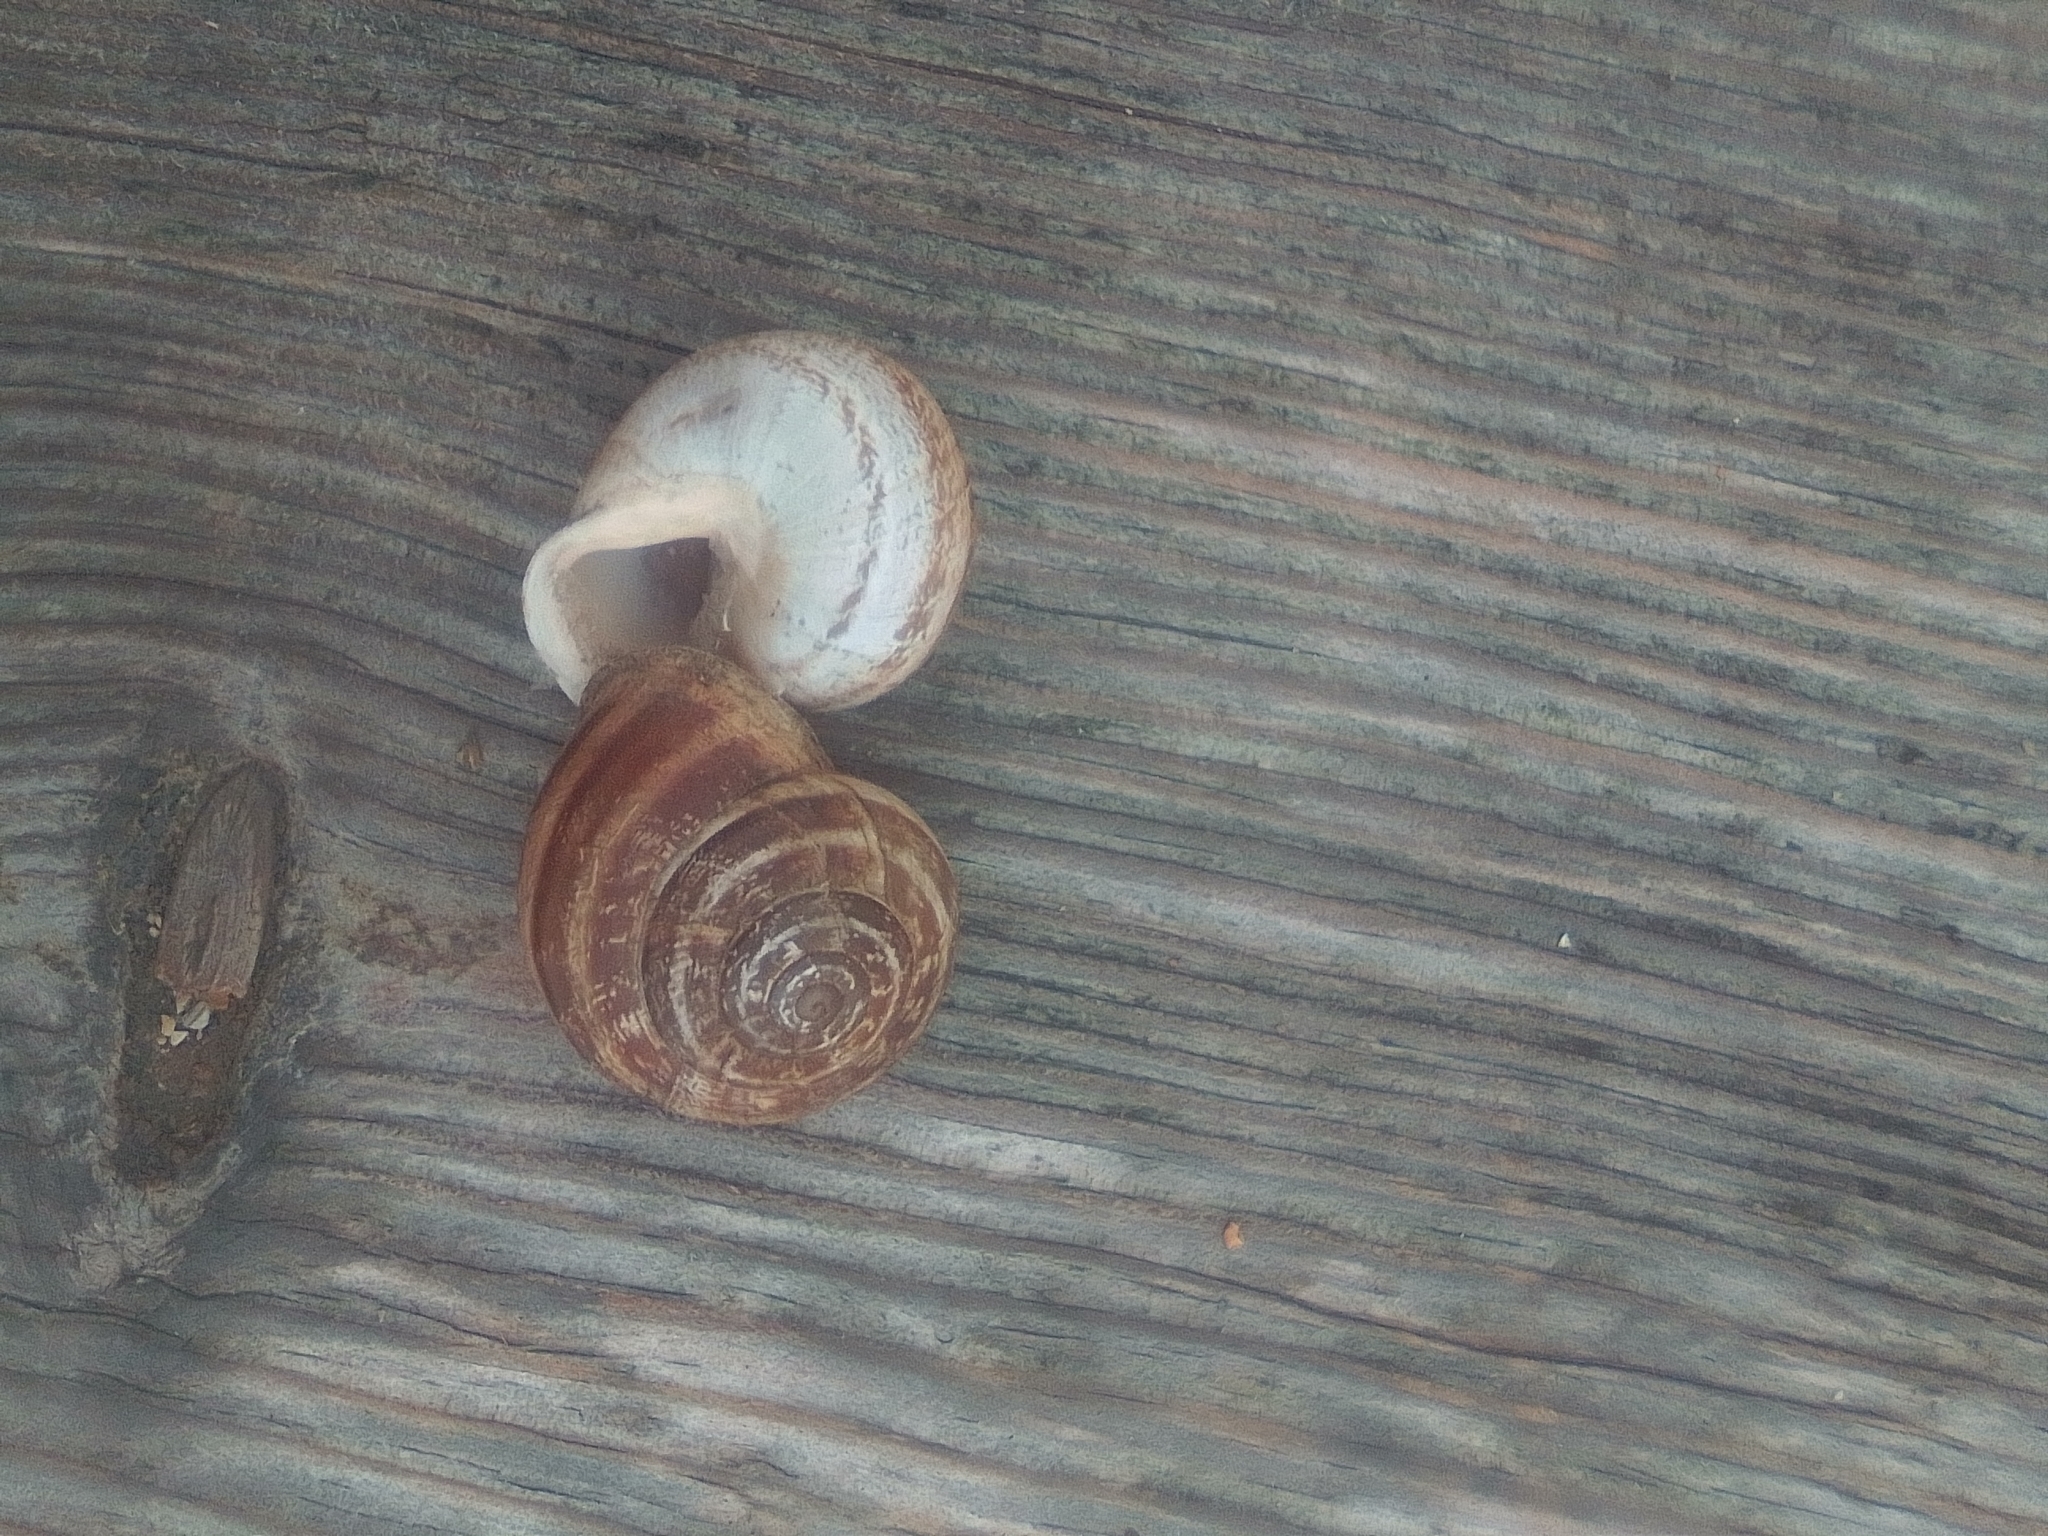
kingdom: Animalia
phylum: Mollusca
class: Gastropoda
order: Stylommatophora
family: Helicidae
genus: Eobania
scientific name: Eobania vermiculata
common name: Chocolateband snail
